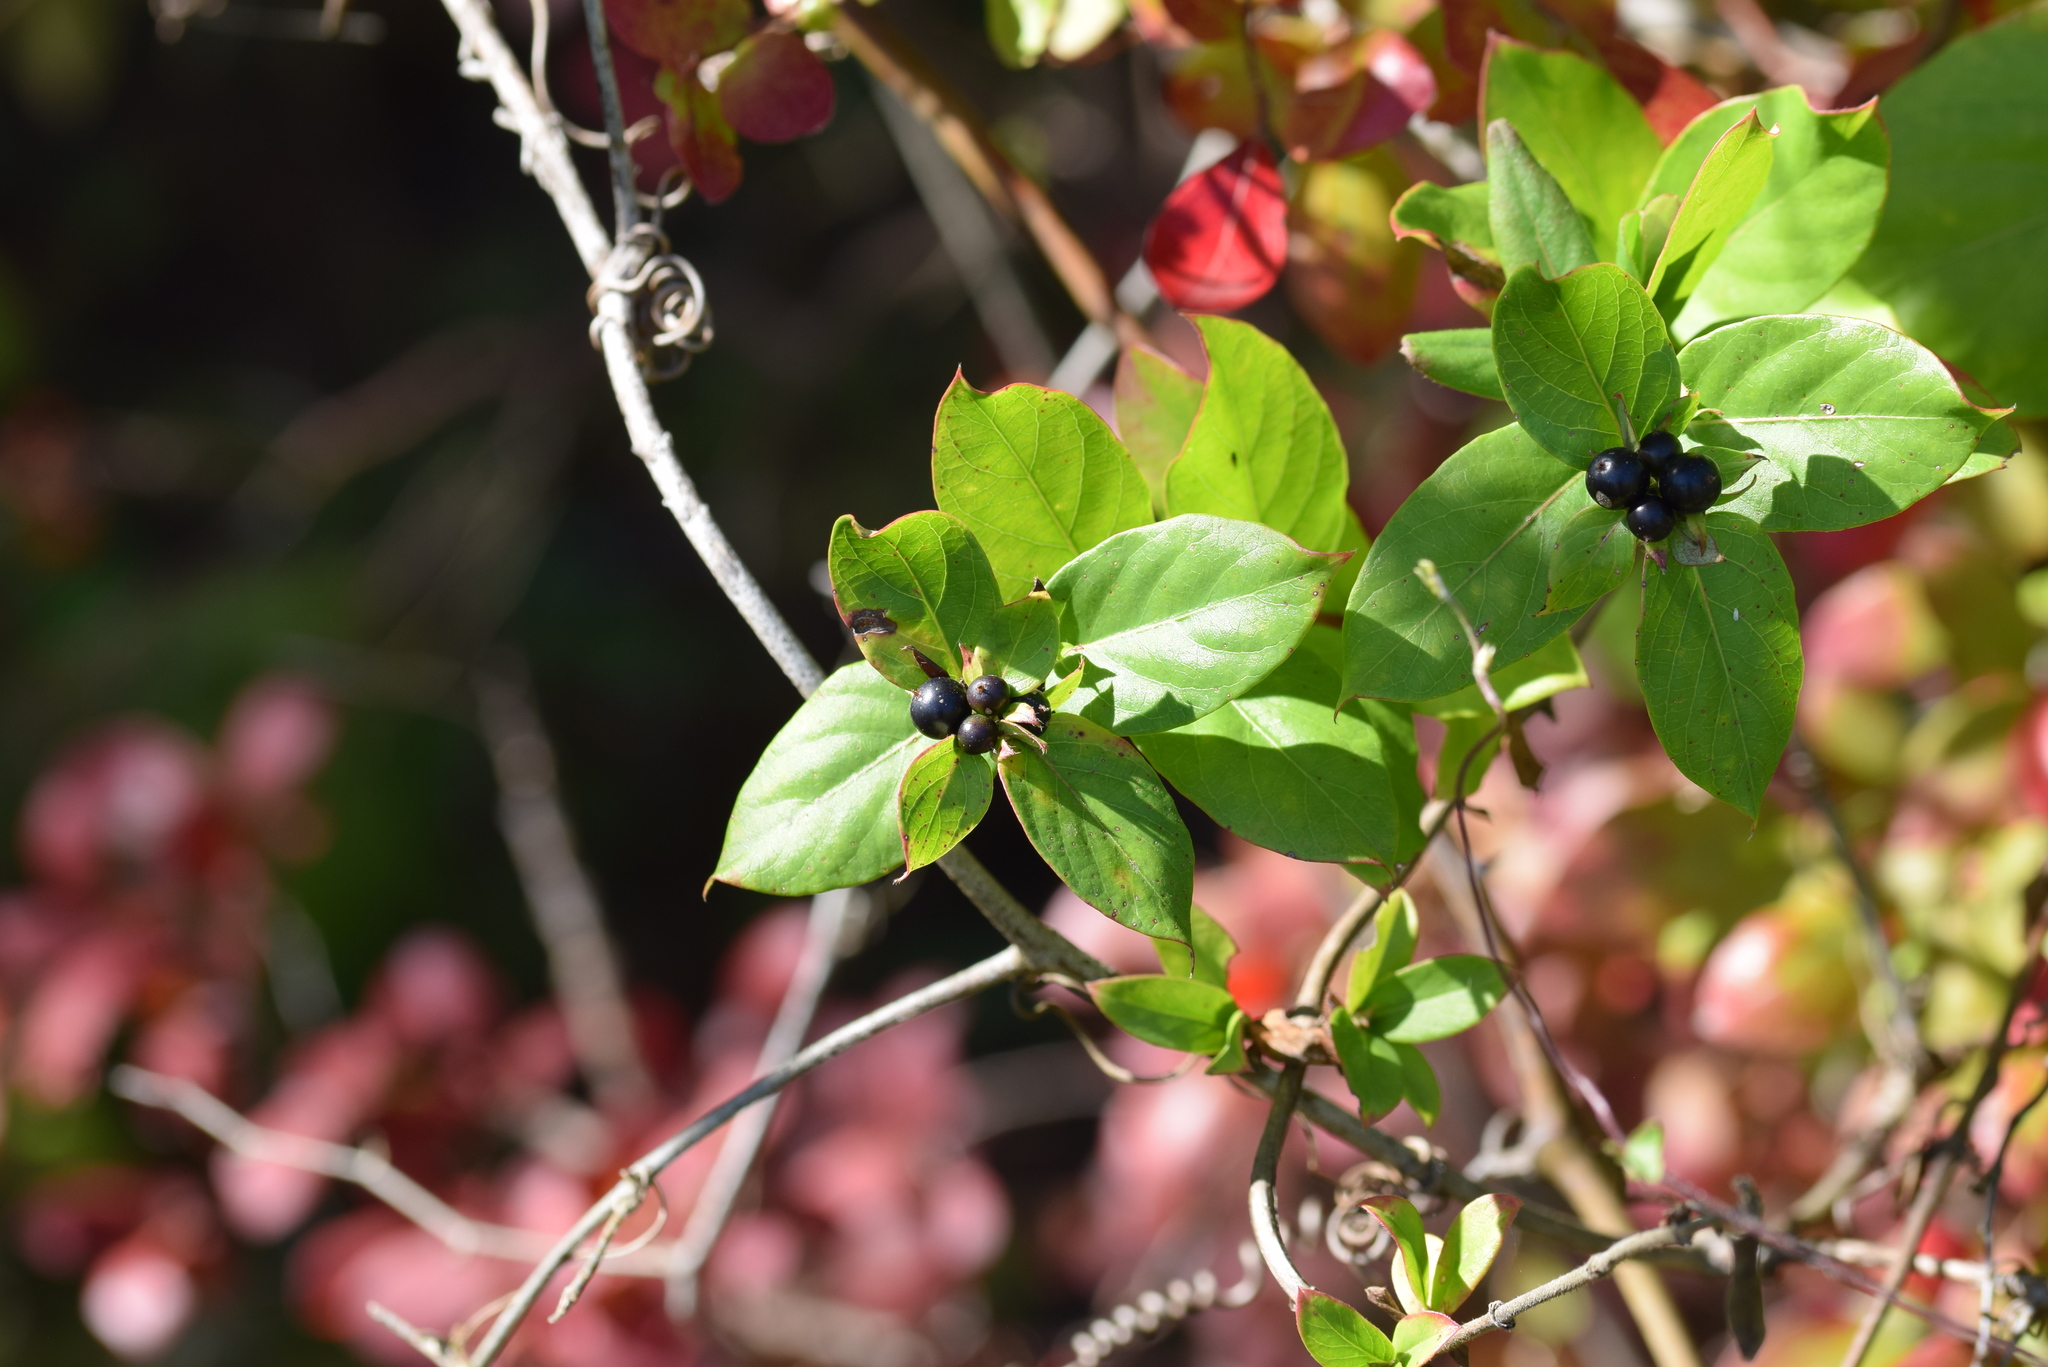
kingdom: Plantae
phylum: Tracheophyta
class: Magnoliopsida
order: Dipsacales
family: Caprifoliaceae
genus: Lonicera
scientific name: Lonicera japonica
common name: Japanese honeysuckle
